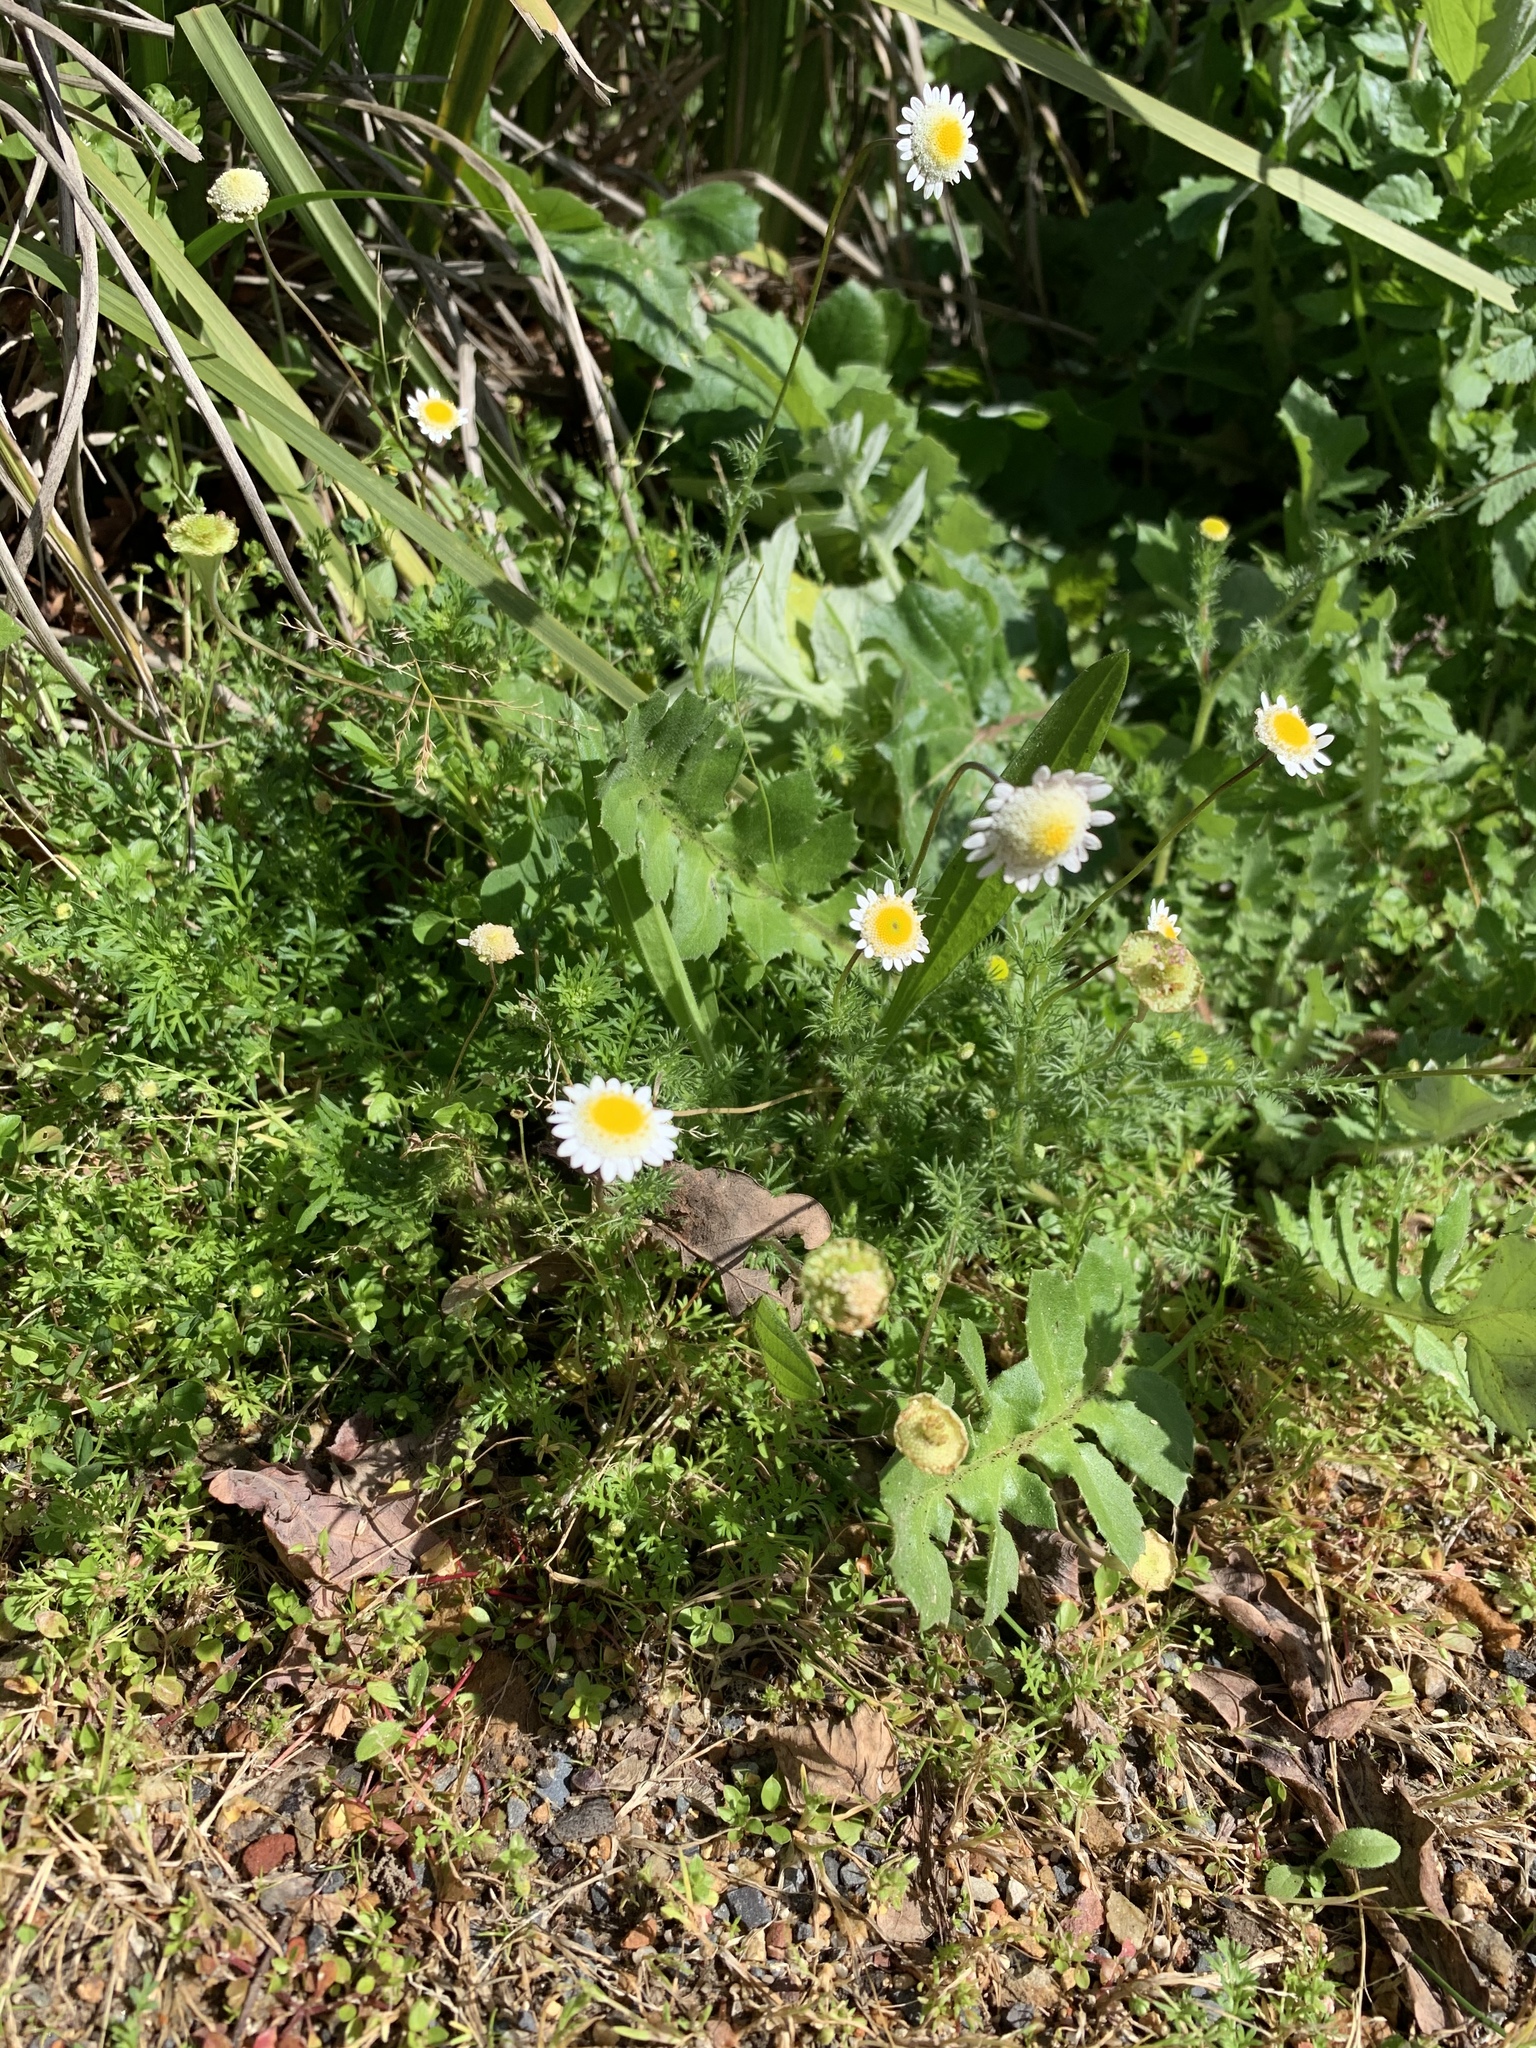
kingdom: Plantae
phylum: Tracheophyta
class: Magnoliopsida
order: Asterales
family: Asteraceae
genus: Cotula
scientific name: Cotula turbinata
